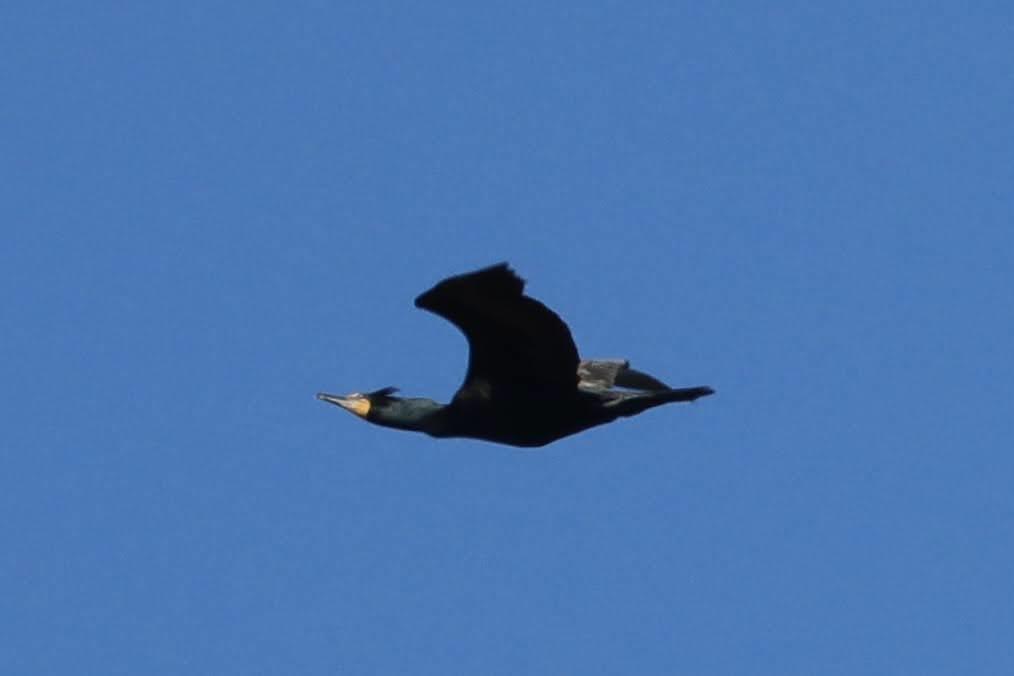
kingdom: Animalia
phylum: Chordata
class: Aves
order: Suliformes
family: Phalacrocoracidae
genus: Phalacrocorax
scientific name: Phalacrocorax auritus
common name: Double-crested cormorant
